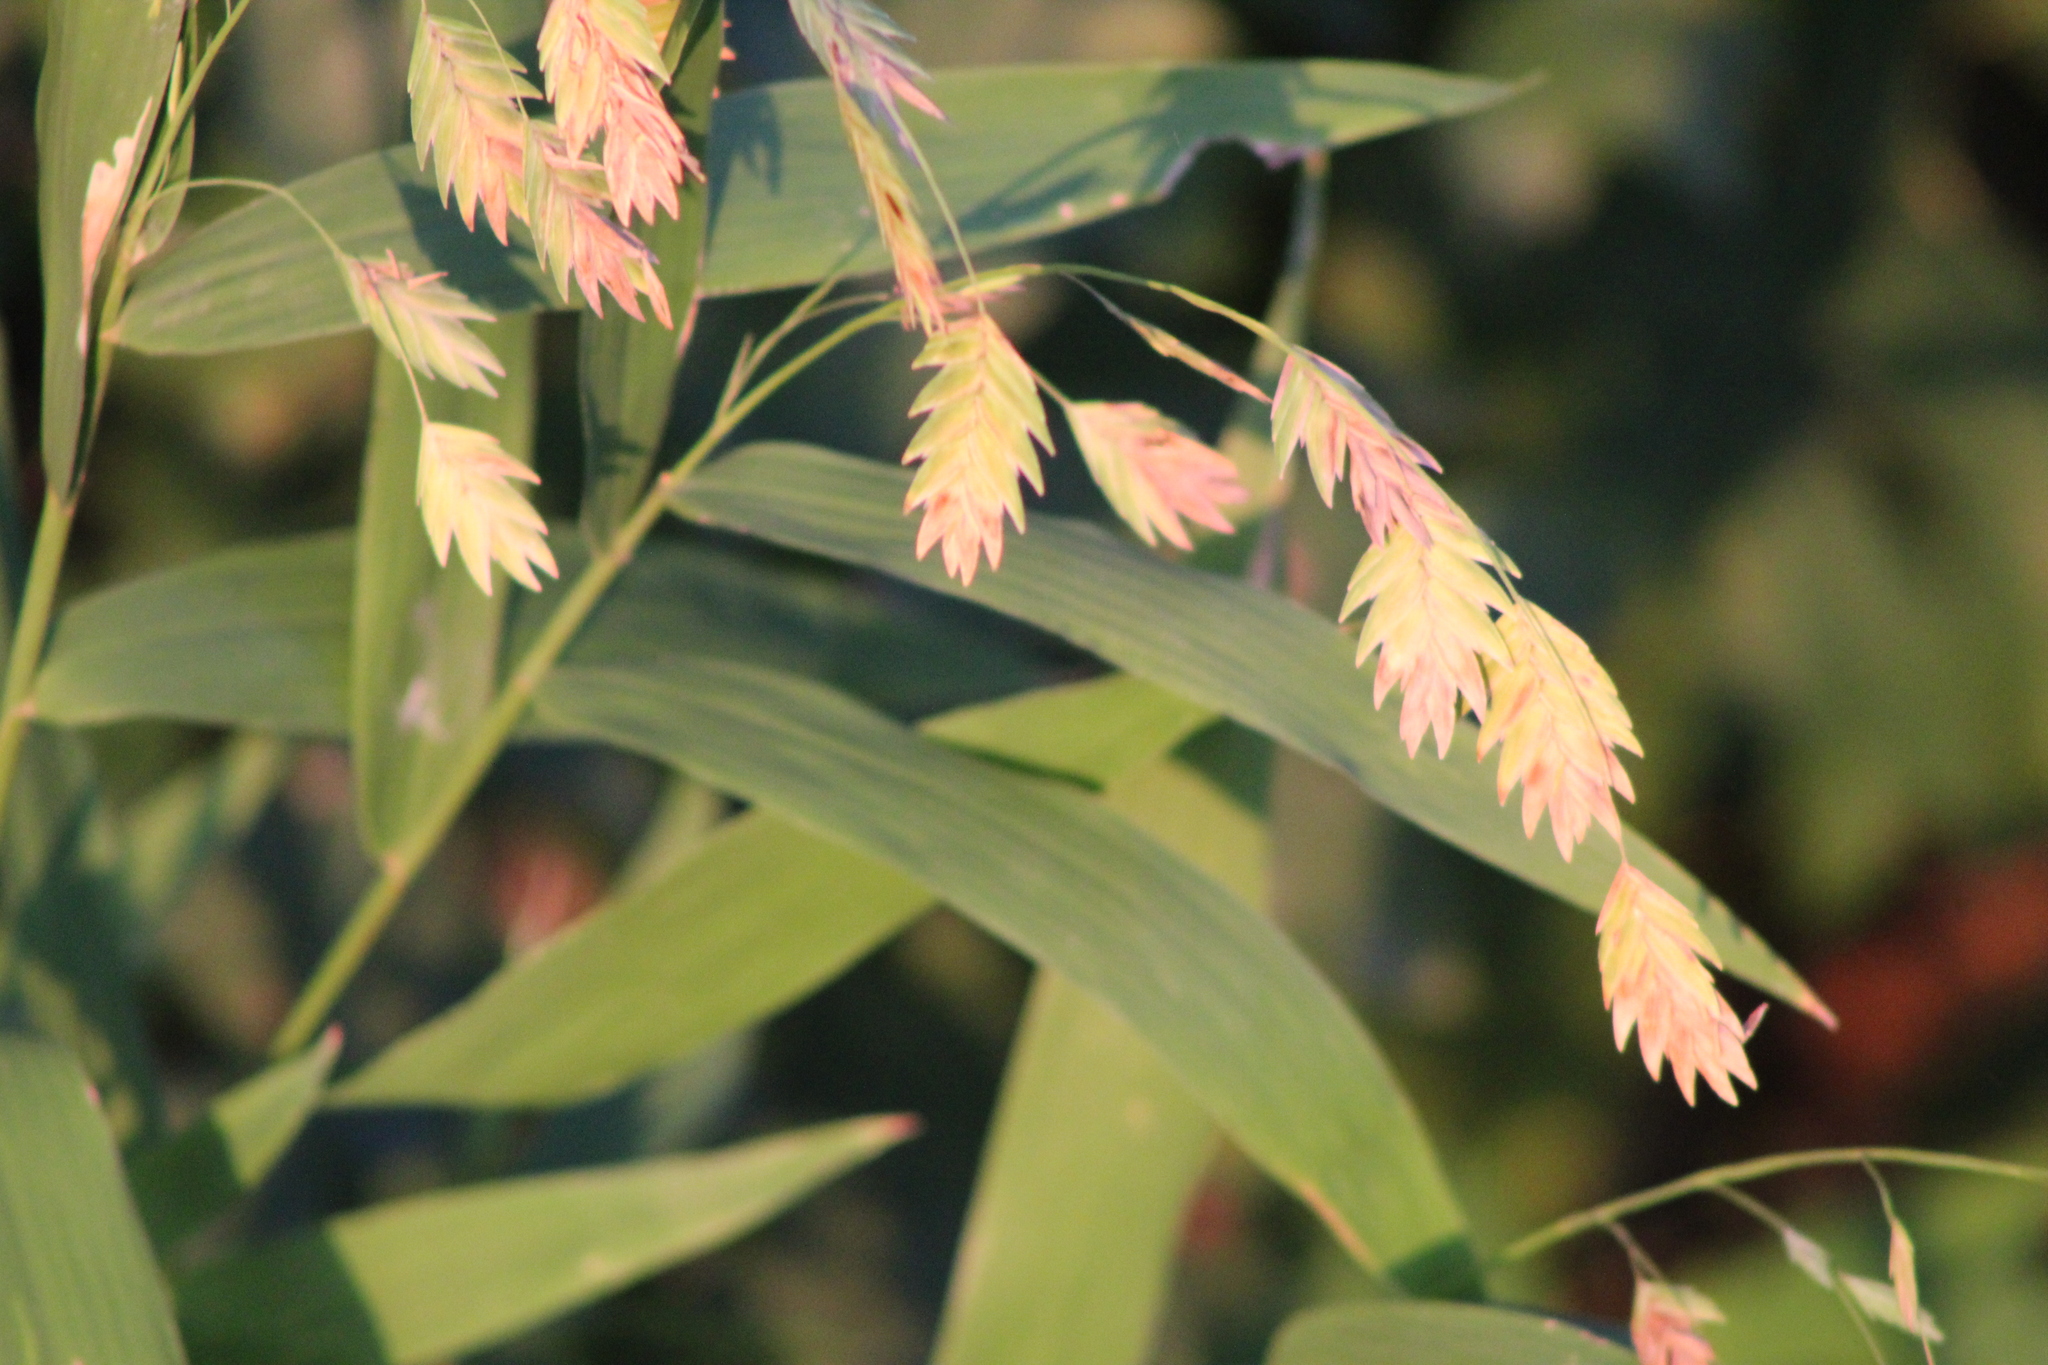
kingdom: Plantae
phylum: Tracheophyta
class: Liliopsida
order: Poales
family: Poaceae
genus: Chasmanthium
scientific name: Chasmanthium latifolium
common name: Broad-leaved chasmanthium
